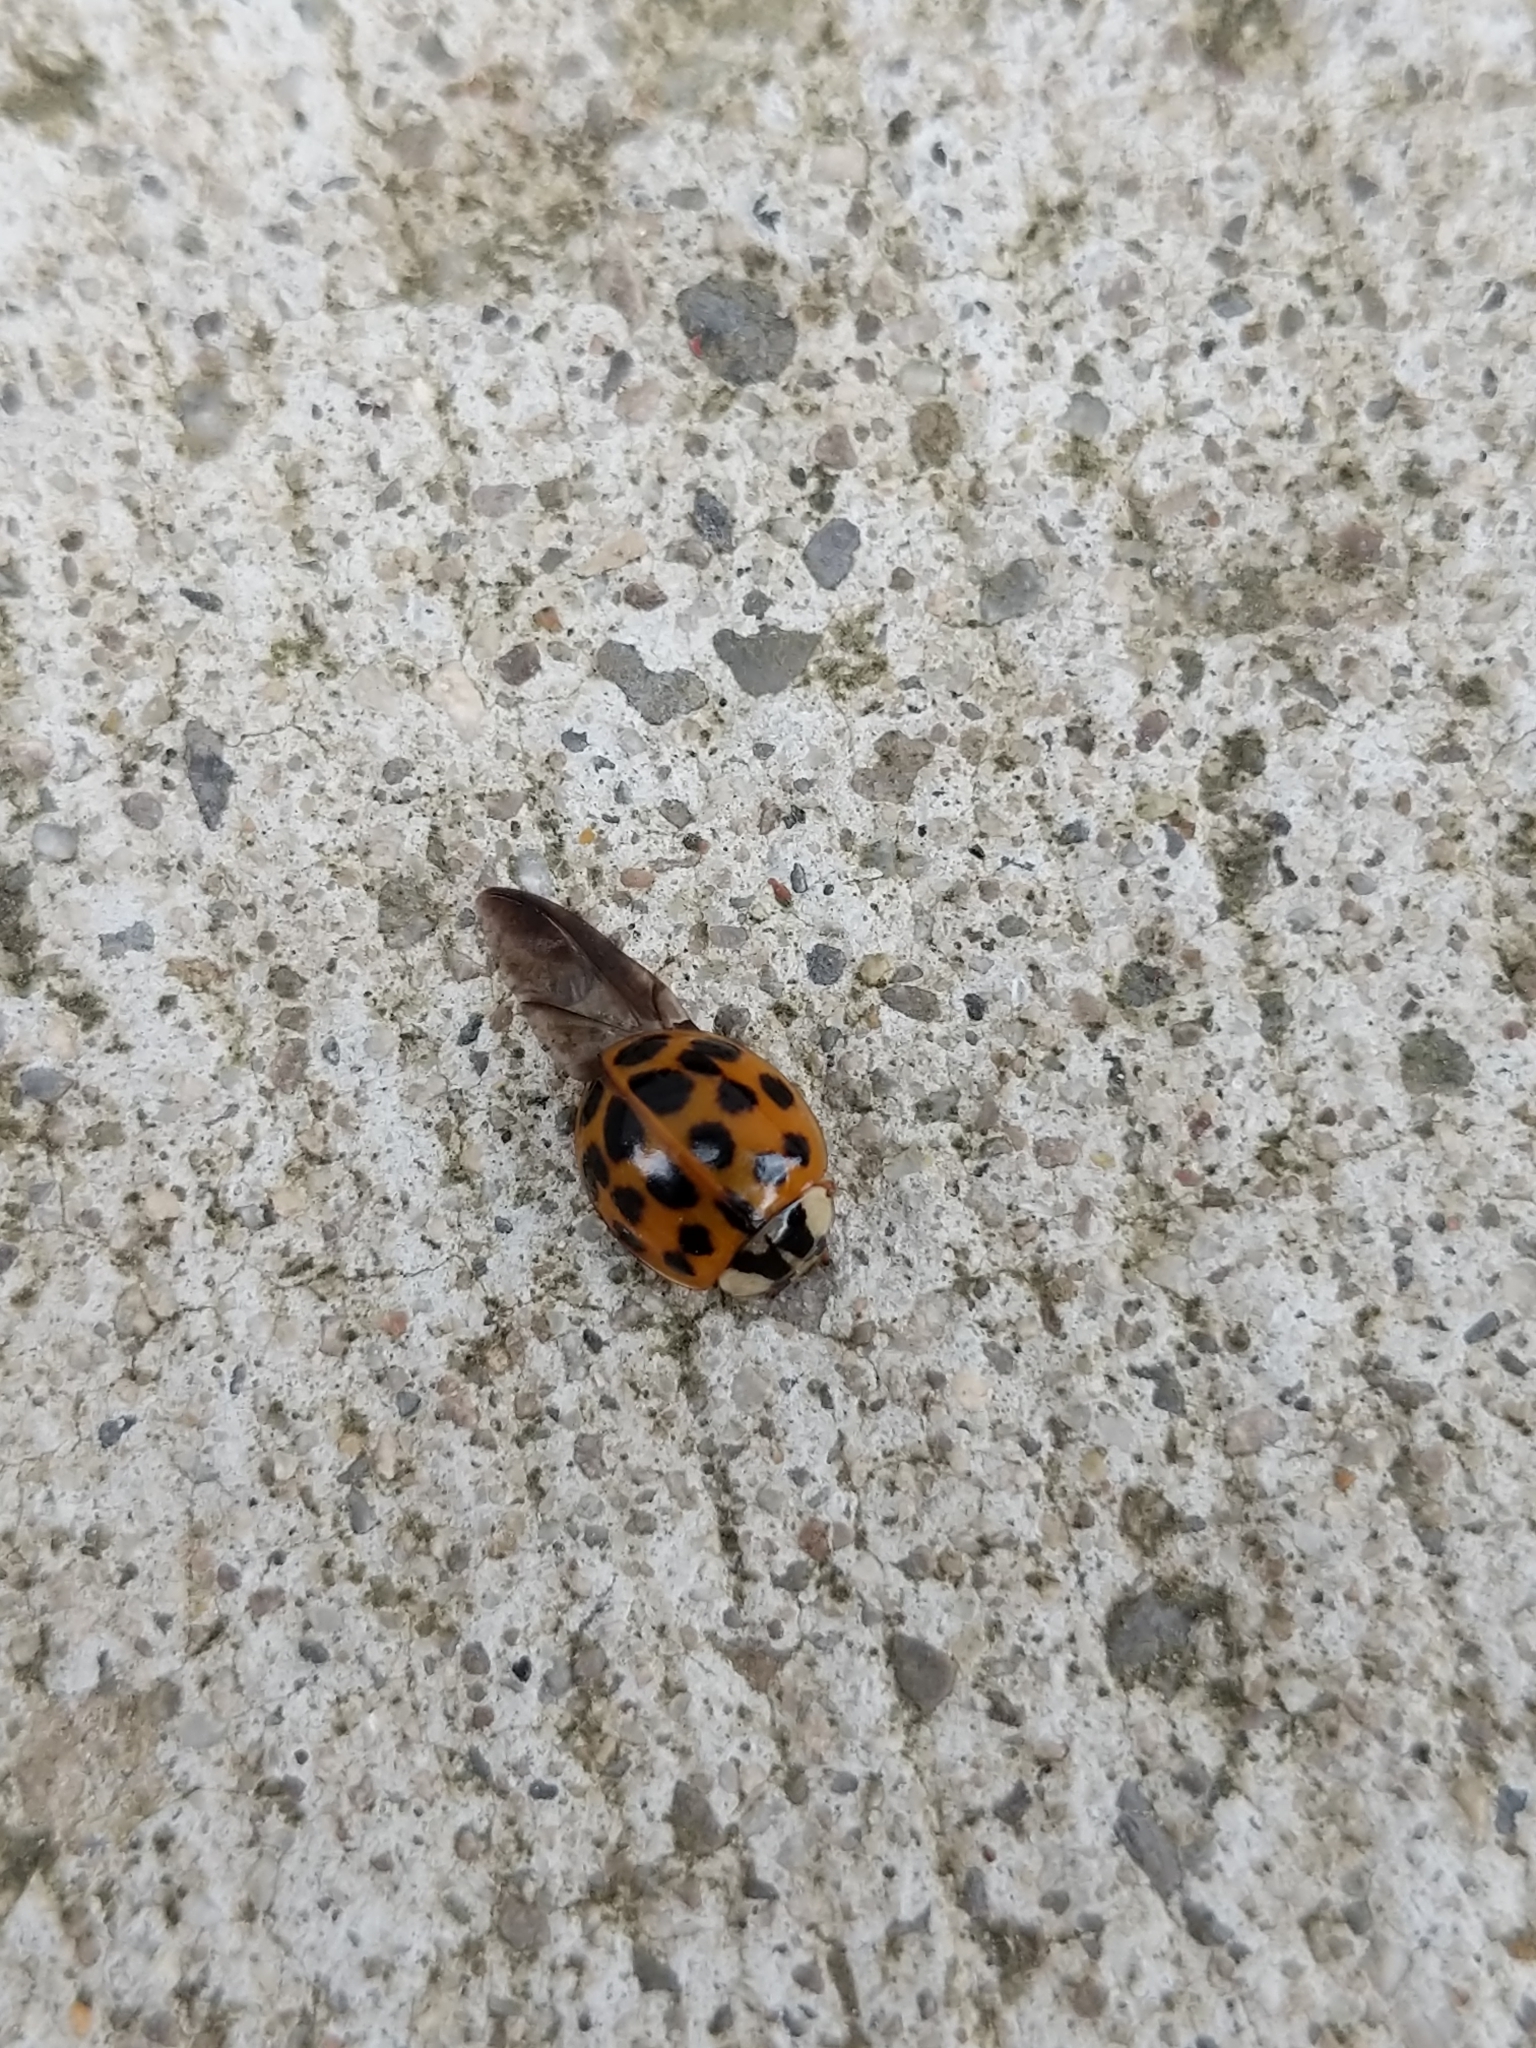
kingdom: Animalia
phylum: Arthropoda
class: Insecta
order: Coleoptera
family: Coccinellidae
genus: Harmonia
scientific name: Harmonia axyridis
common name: Harlequin ladybird
